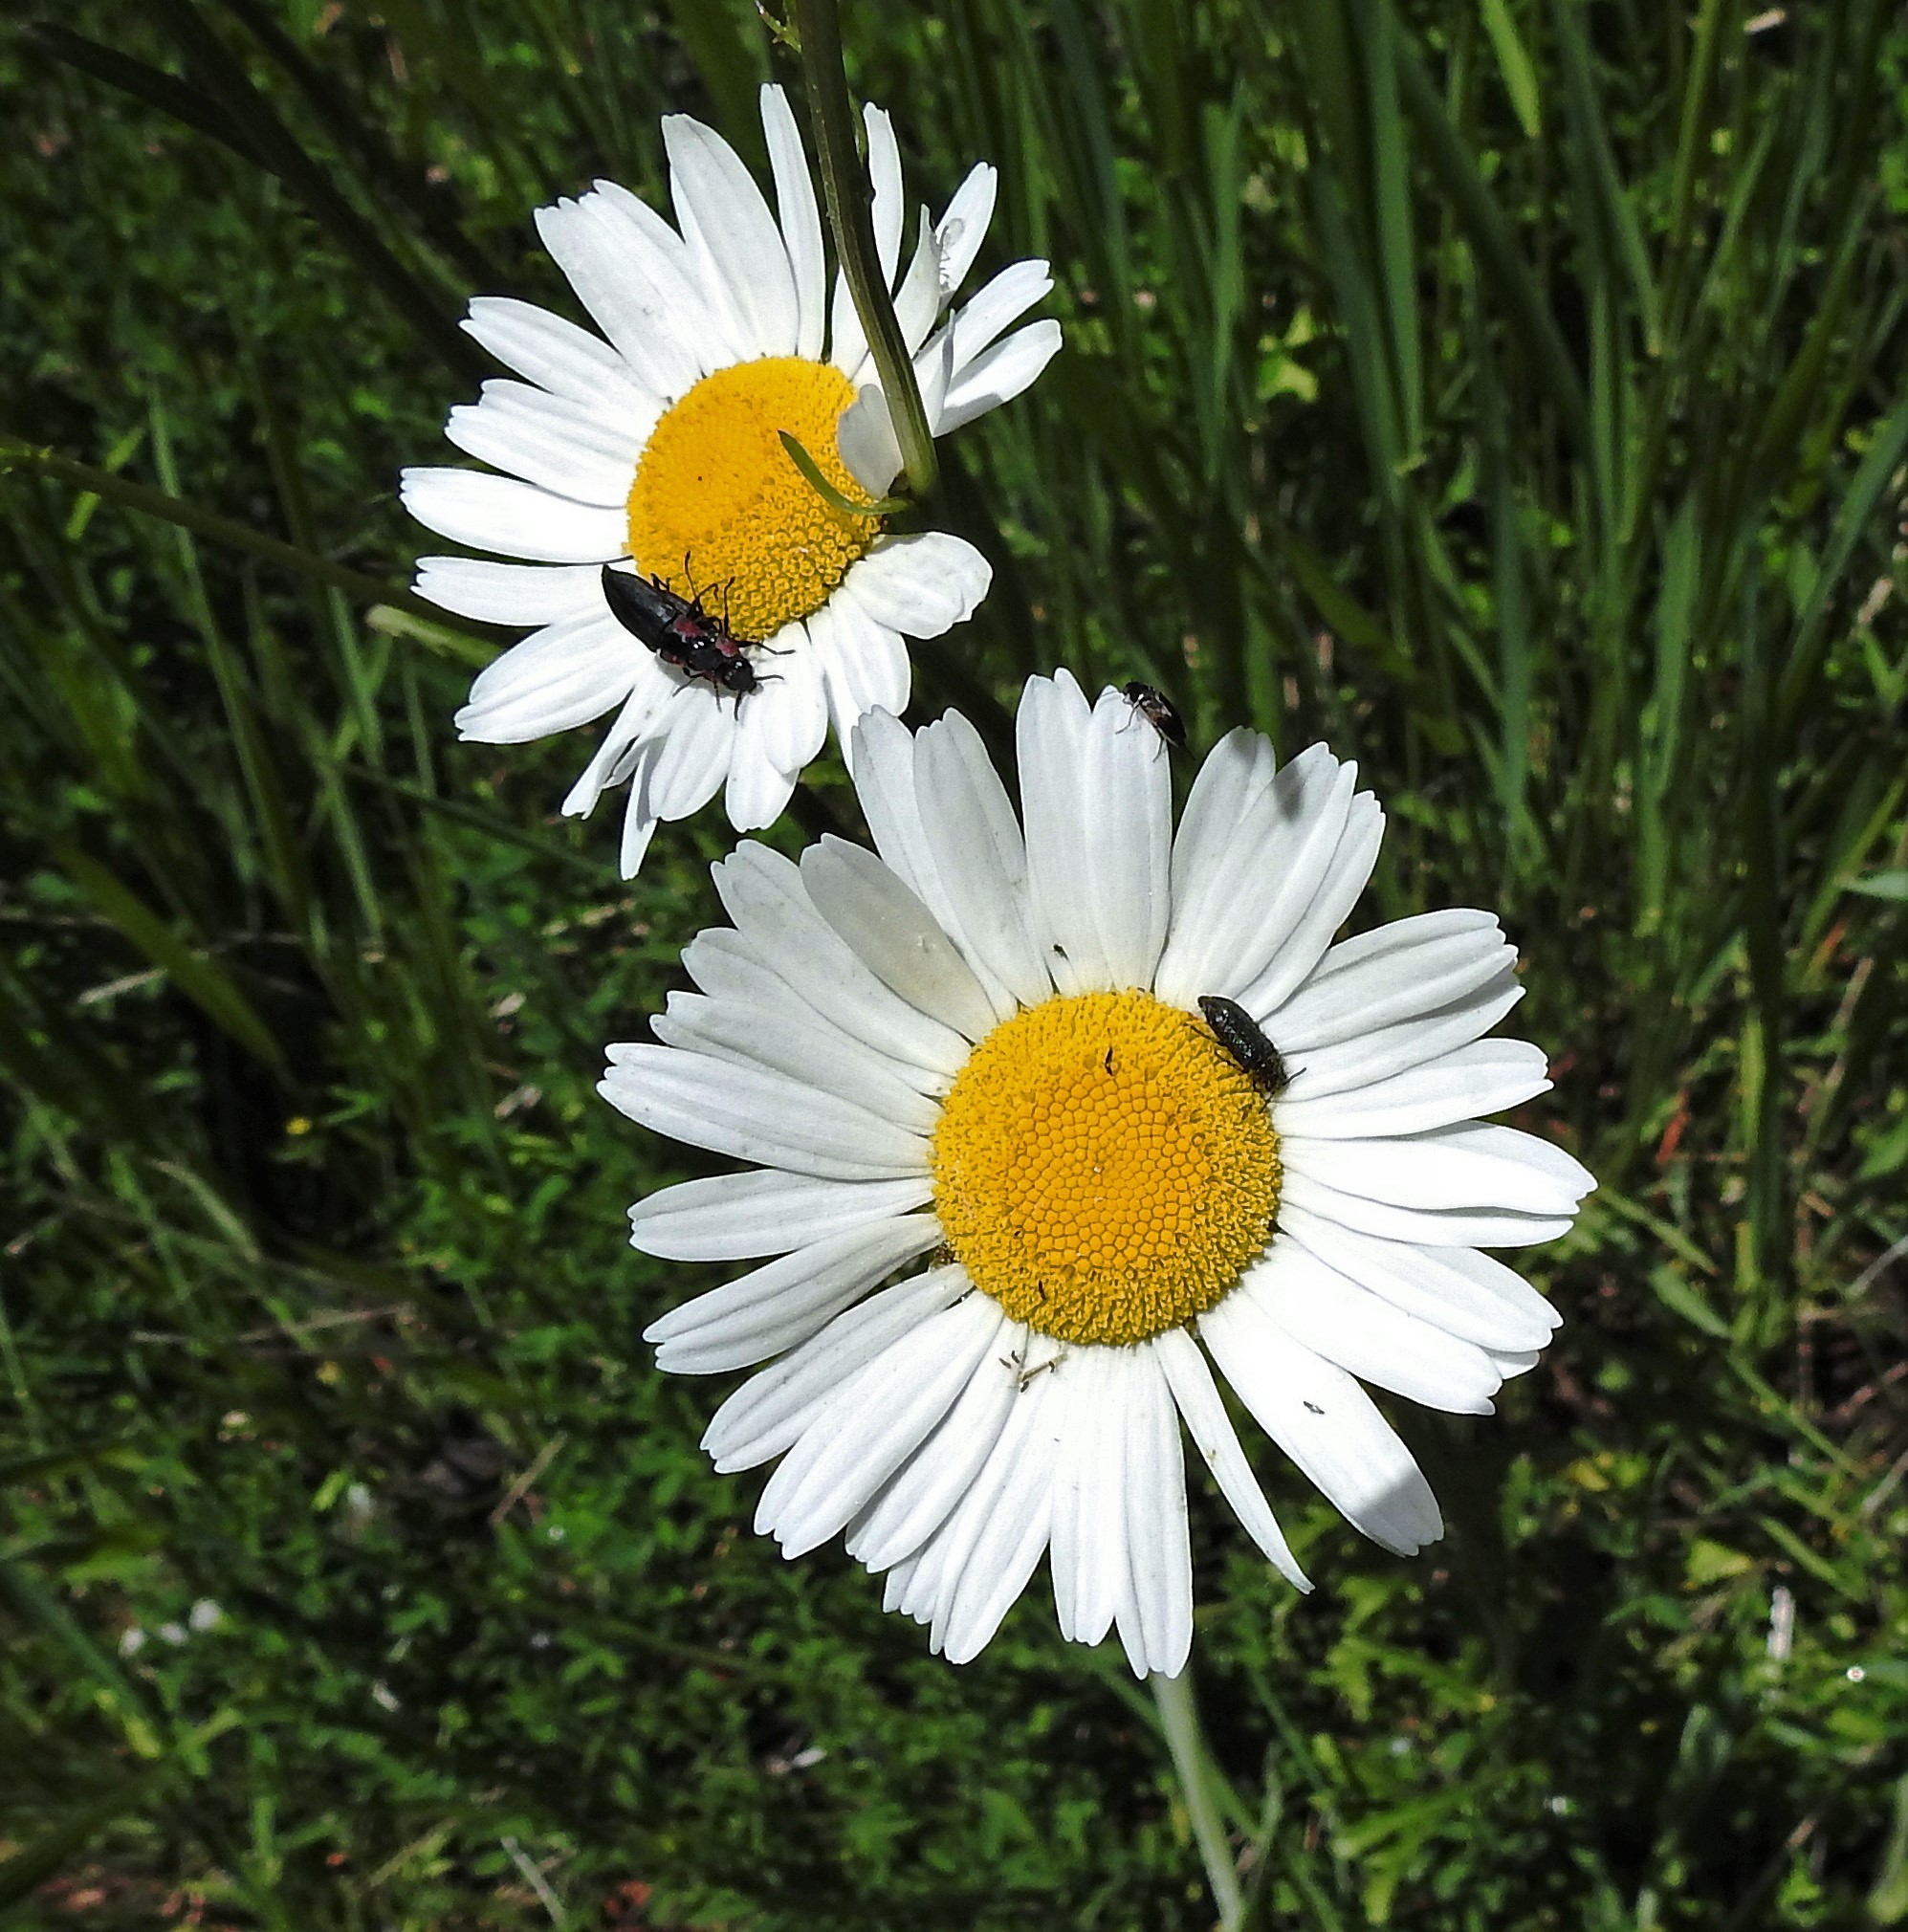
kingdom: Plantae
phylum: Tracheophyta
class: Magnoliopsida
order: Asterales
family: Asteraceae
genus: Leucanthemum
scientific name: Leucanthemum vulgare
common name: Oxeye daisy
